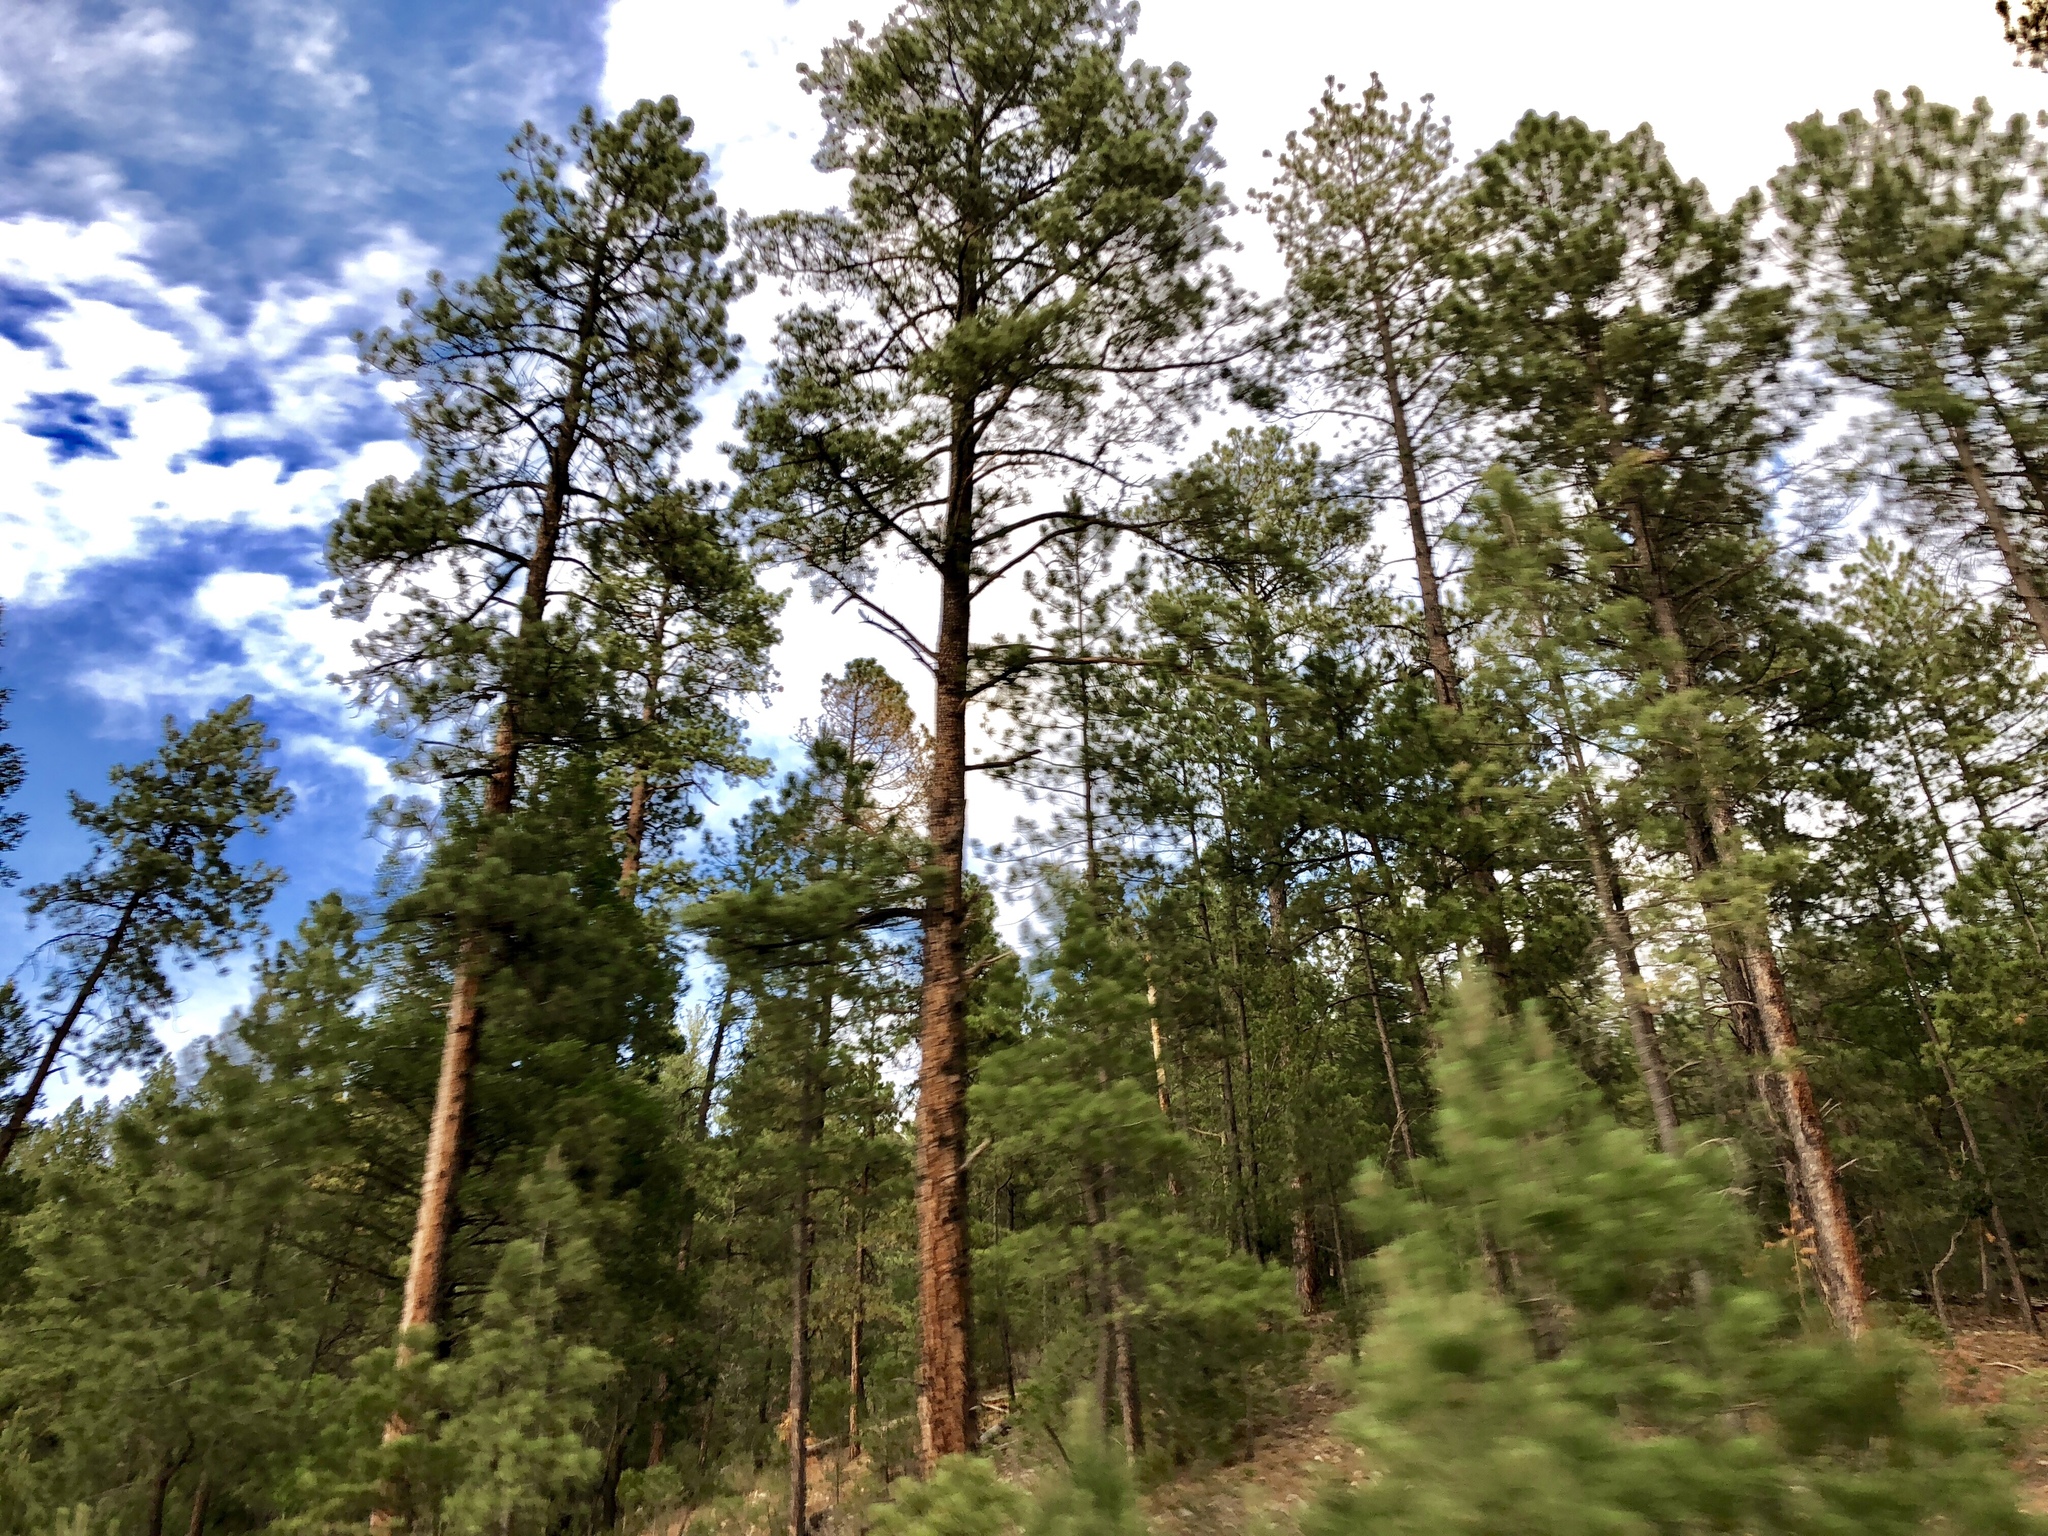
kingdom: Plantae
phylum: Tracheophyta
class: Pinopsida
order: Pinales
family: Pinaceae
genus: Pinus
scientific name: Pinus ponderosa
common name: Western yellow-pine
